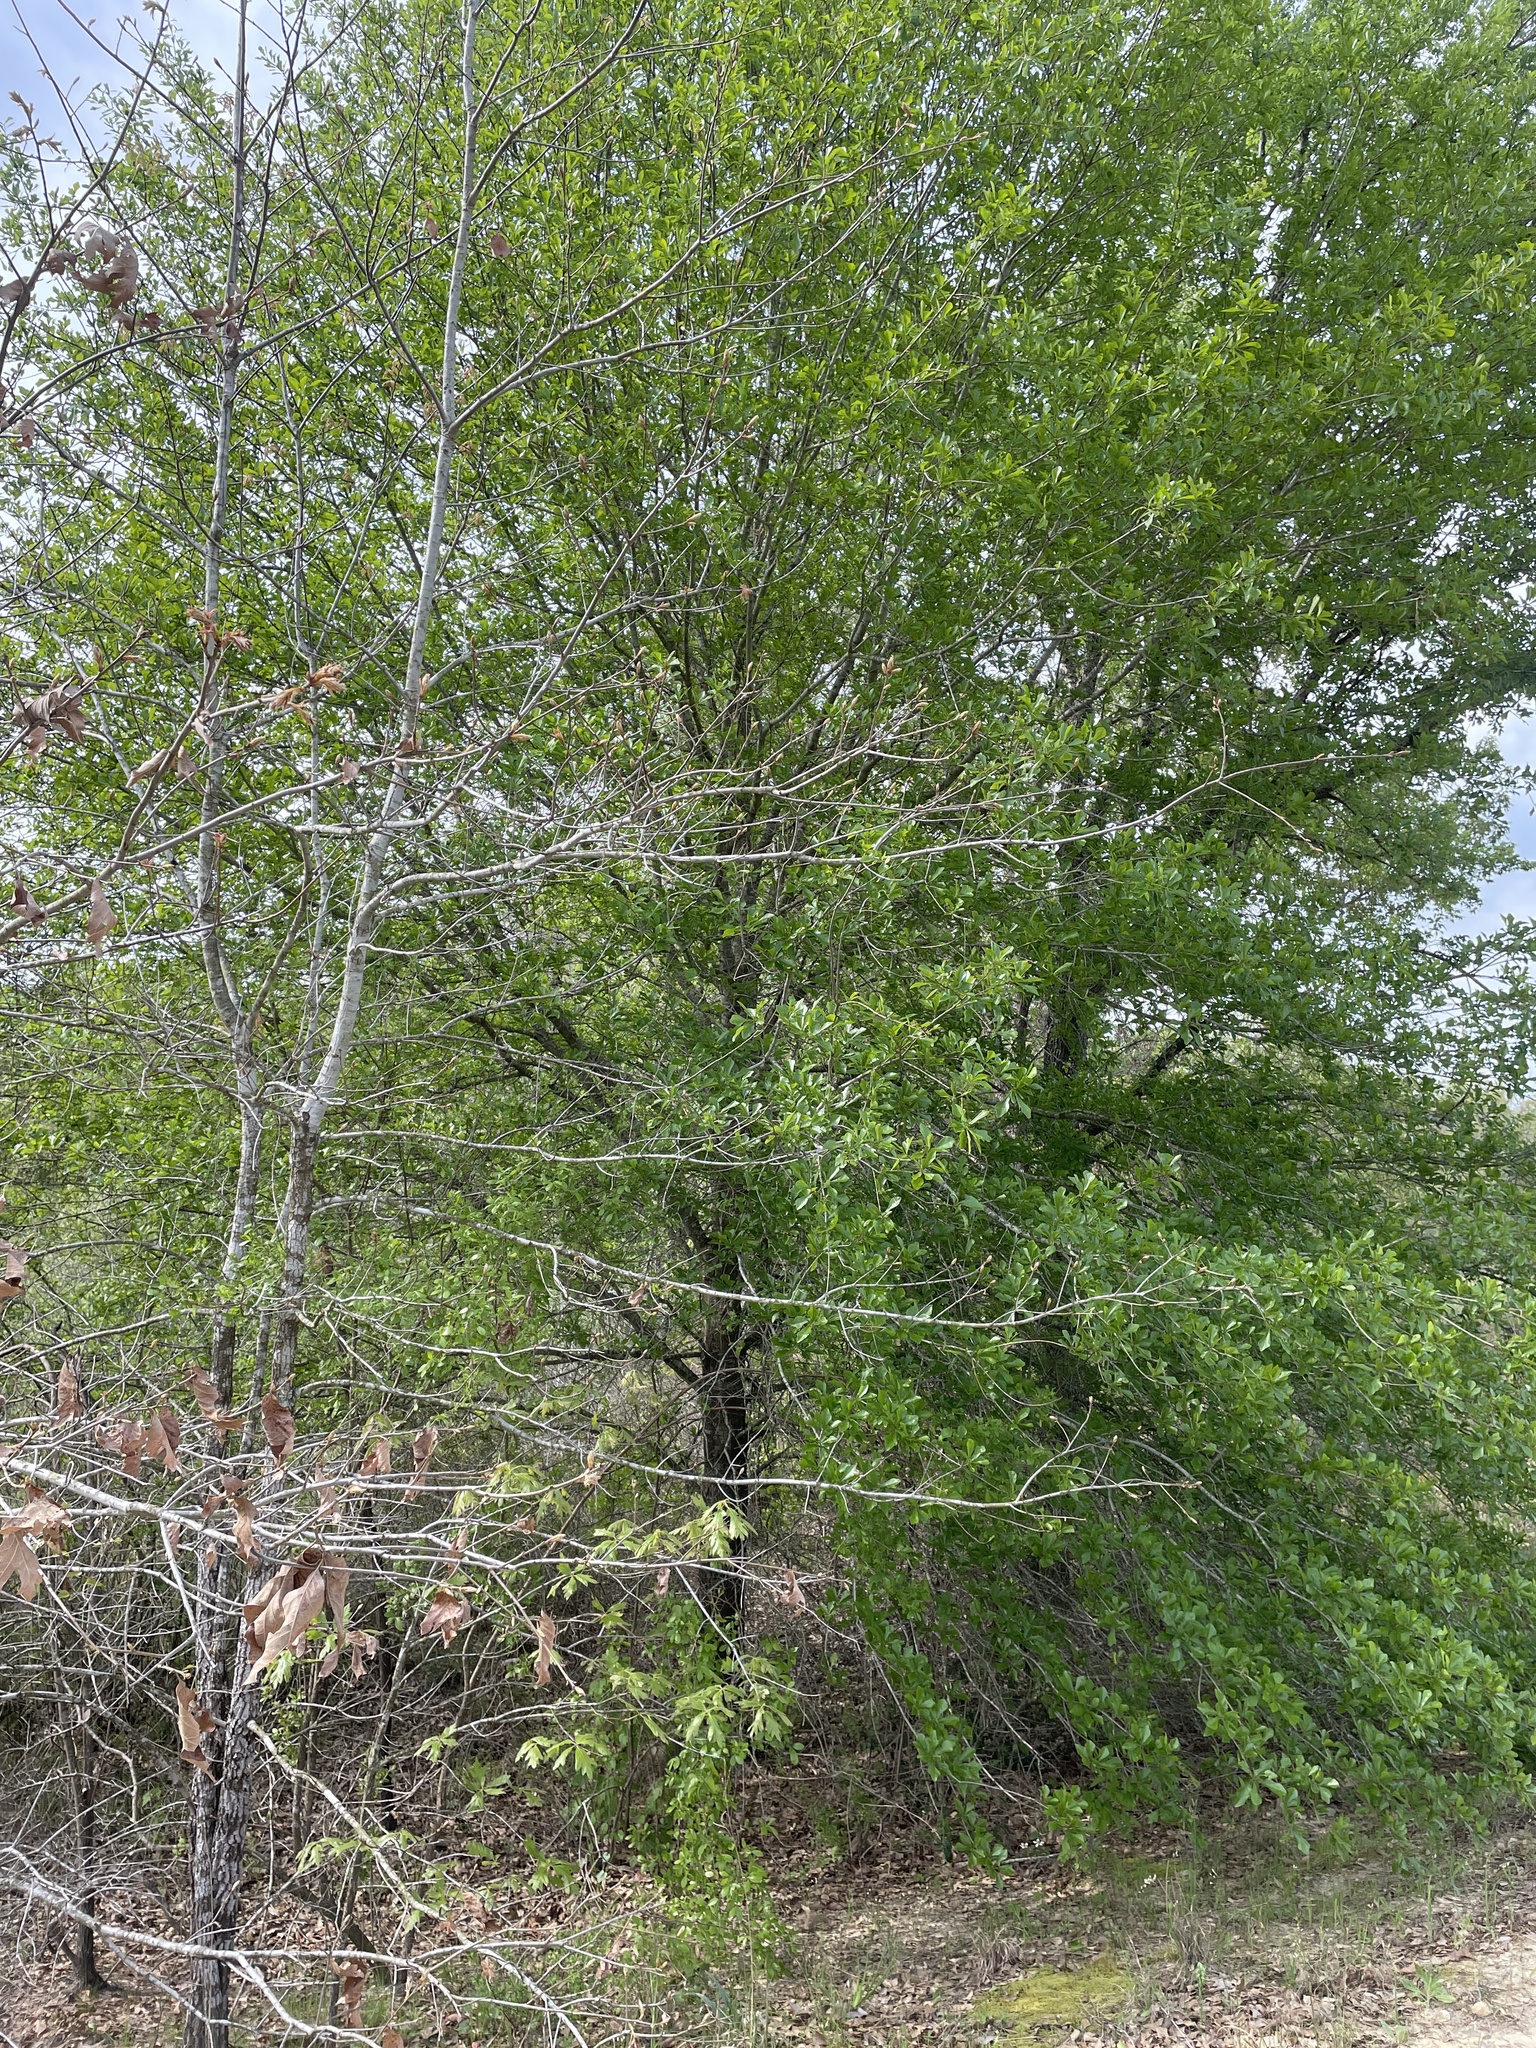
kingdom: Plantae
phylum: Tracheophyta
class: Magnoliopsida
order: Fagales
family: Fagaceae
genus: Quercus
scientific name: Quercus nigra
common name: Water oak
